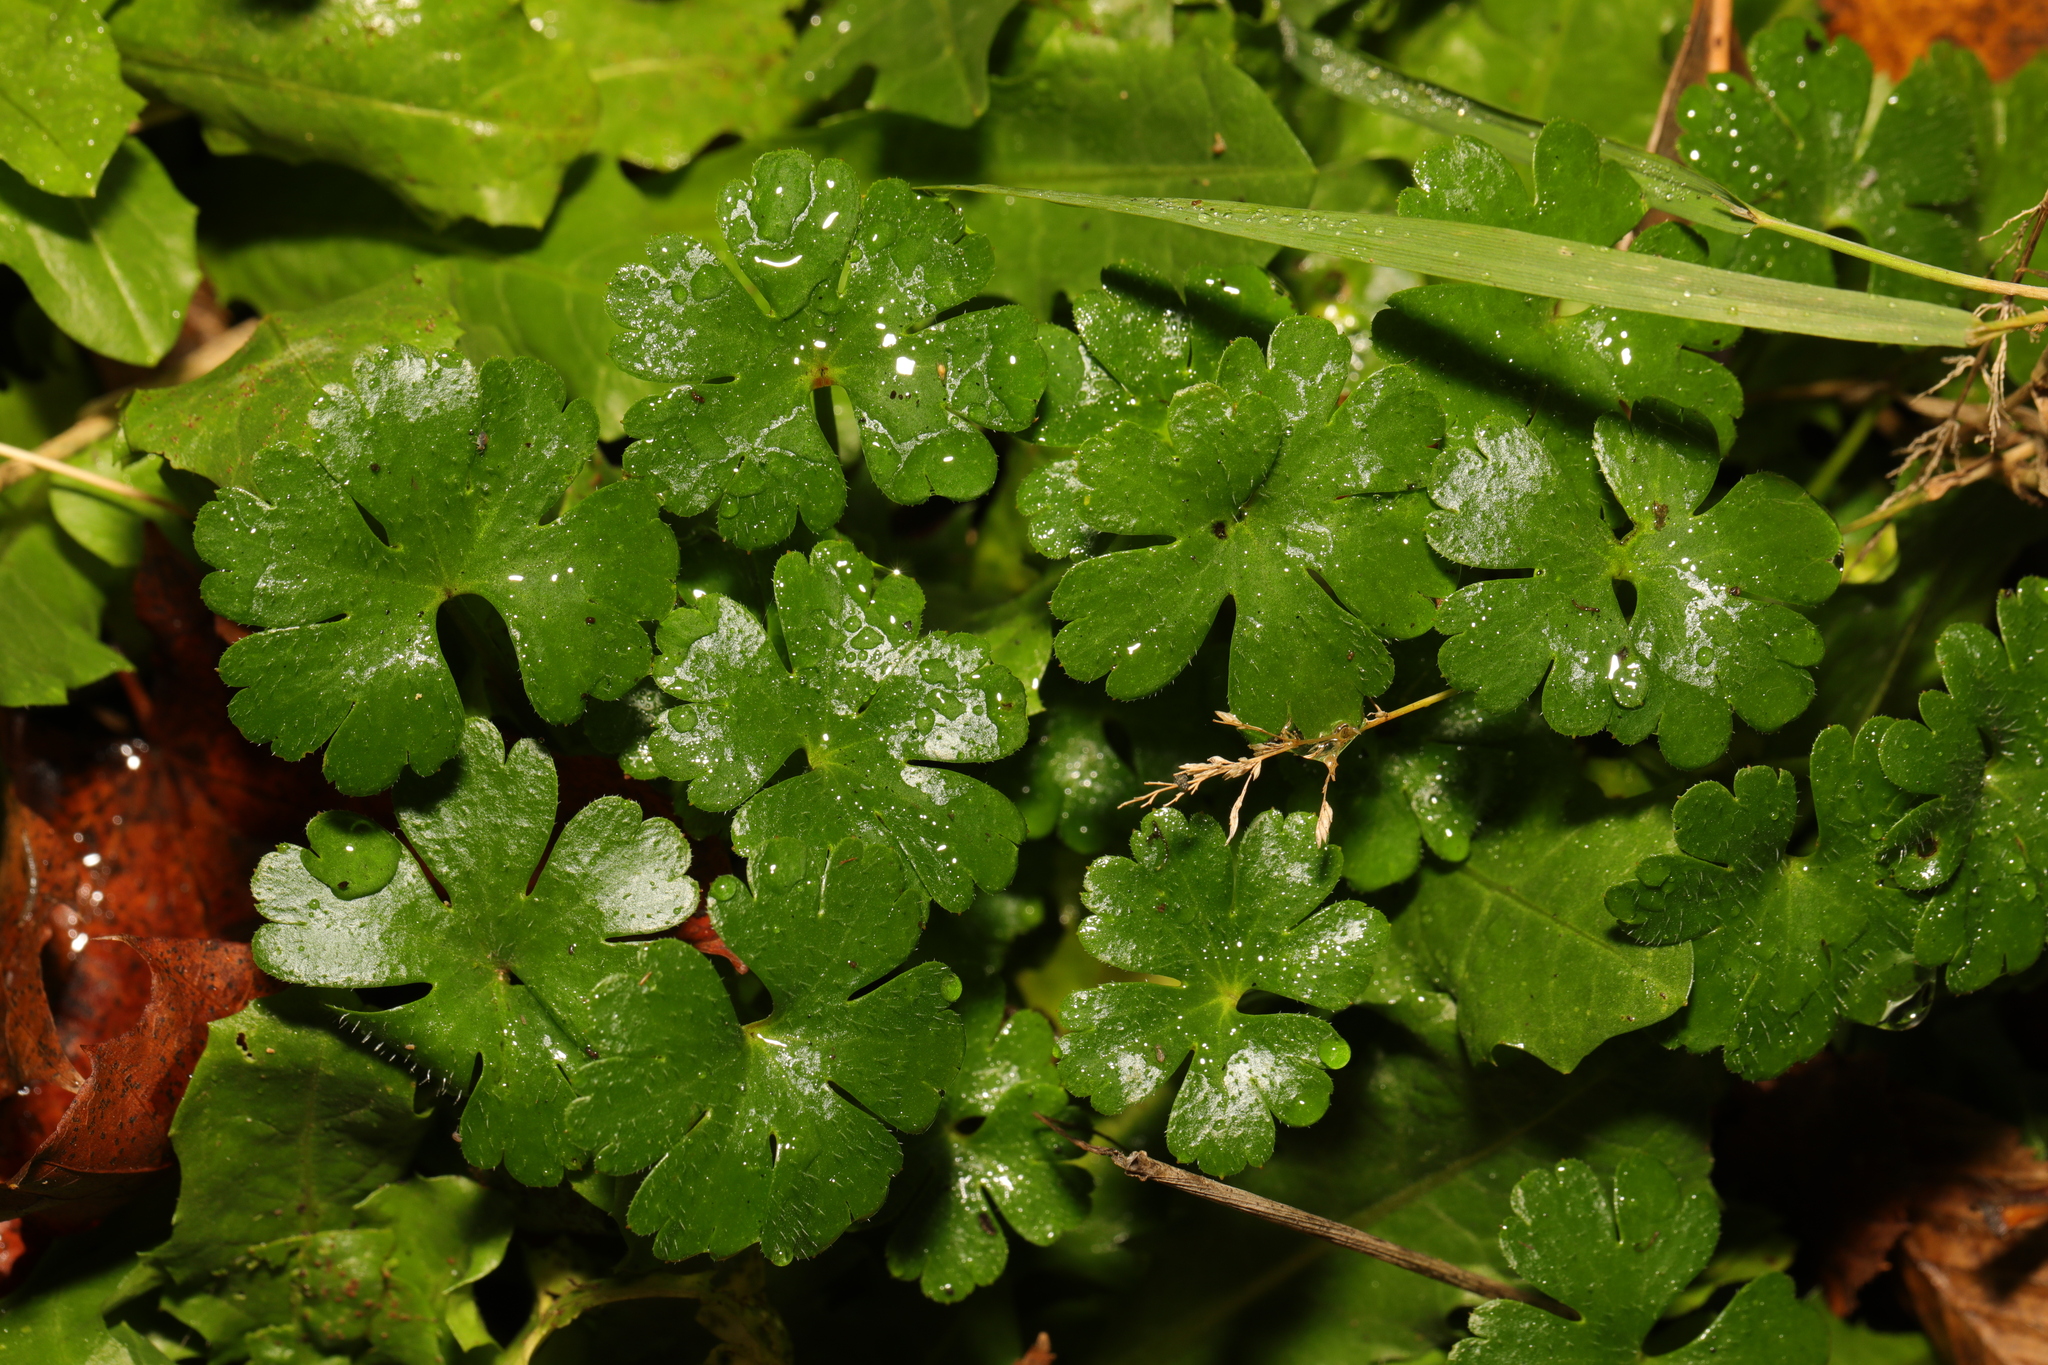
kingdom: Plantae
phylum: Tracheophyta
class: Magnoliopsida
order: Geraniales
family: Geraniaceae
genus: Geranium
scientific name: Geranium lucidum
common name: Shining crane's-bill
